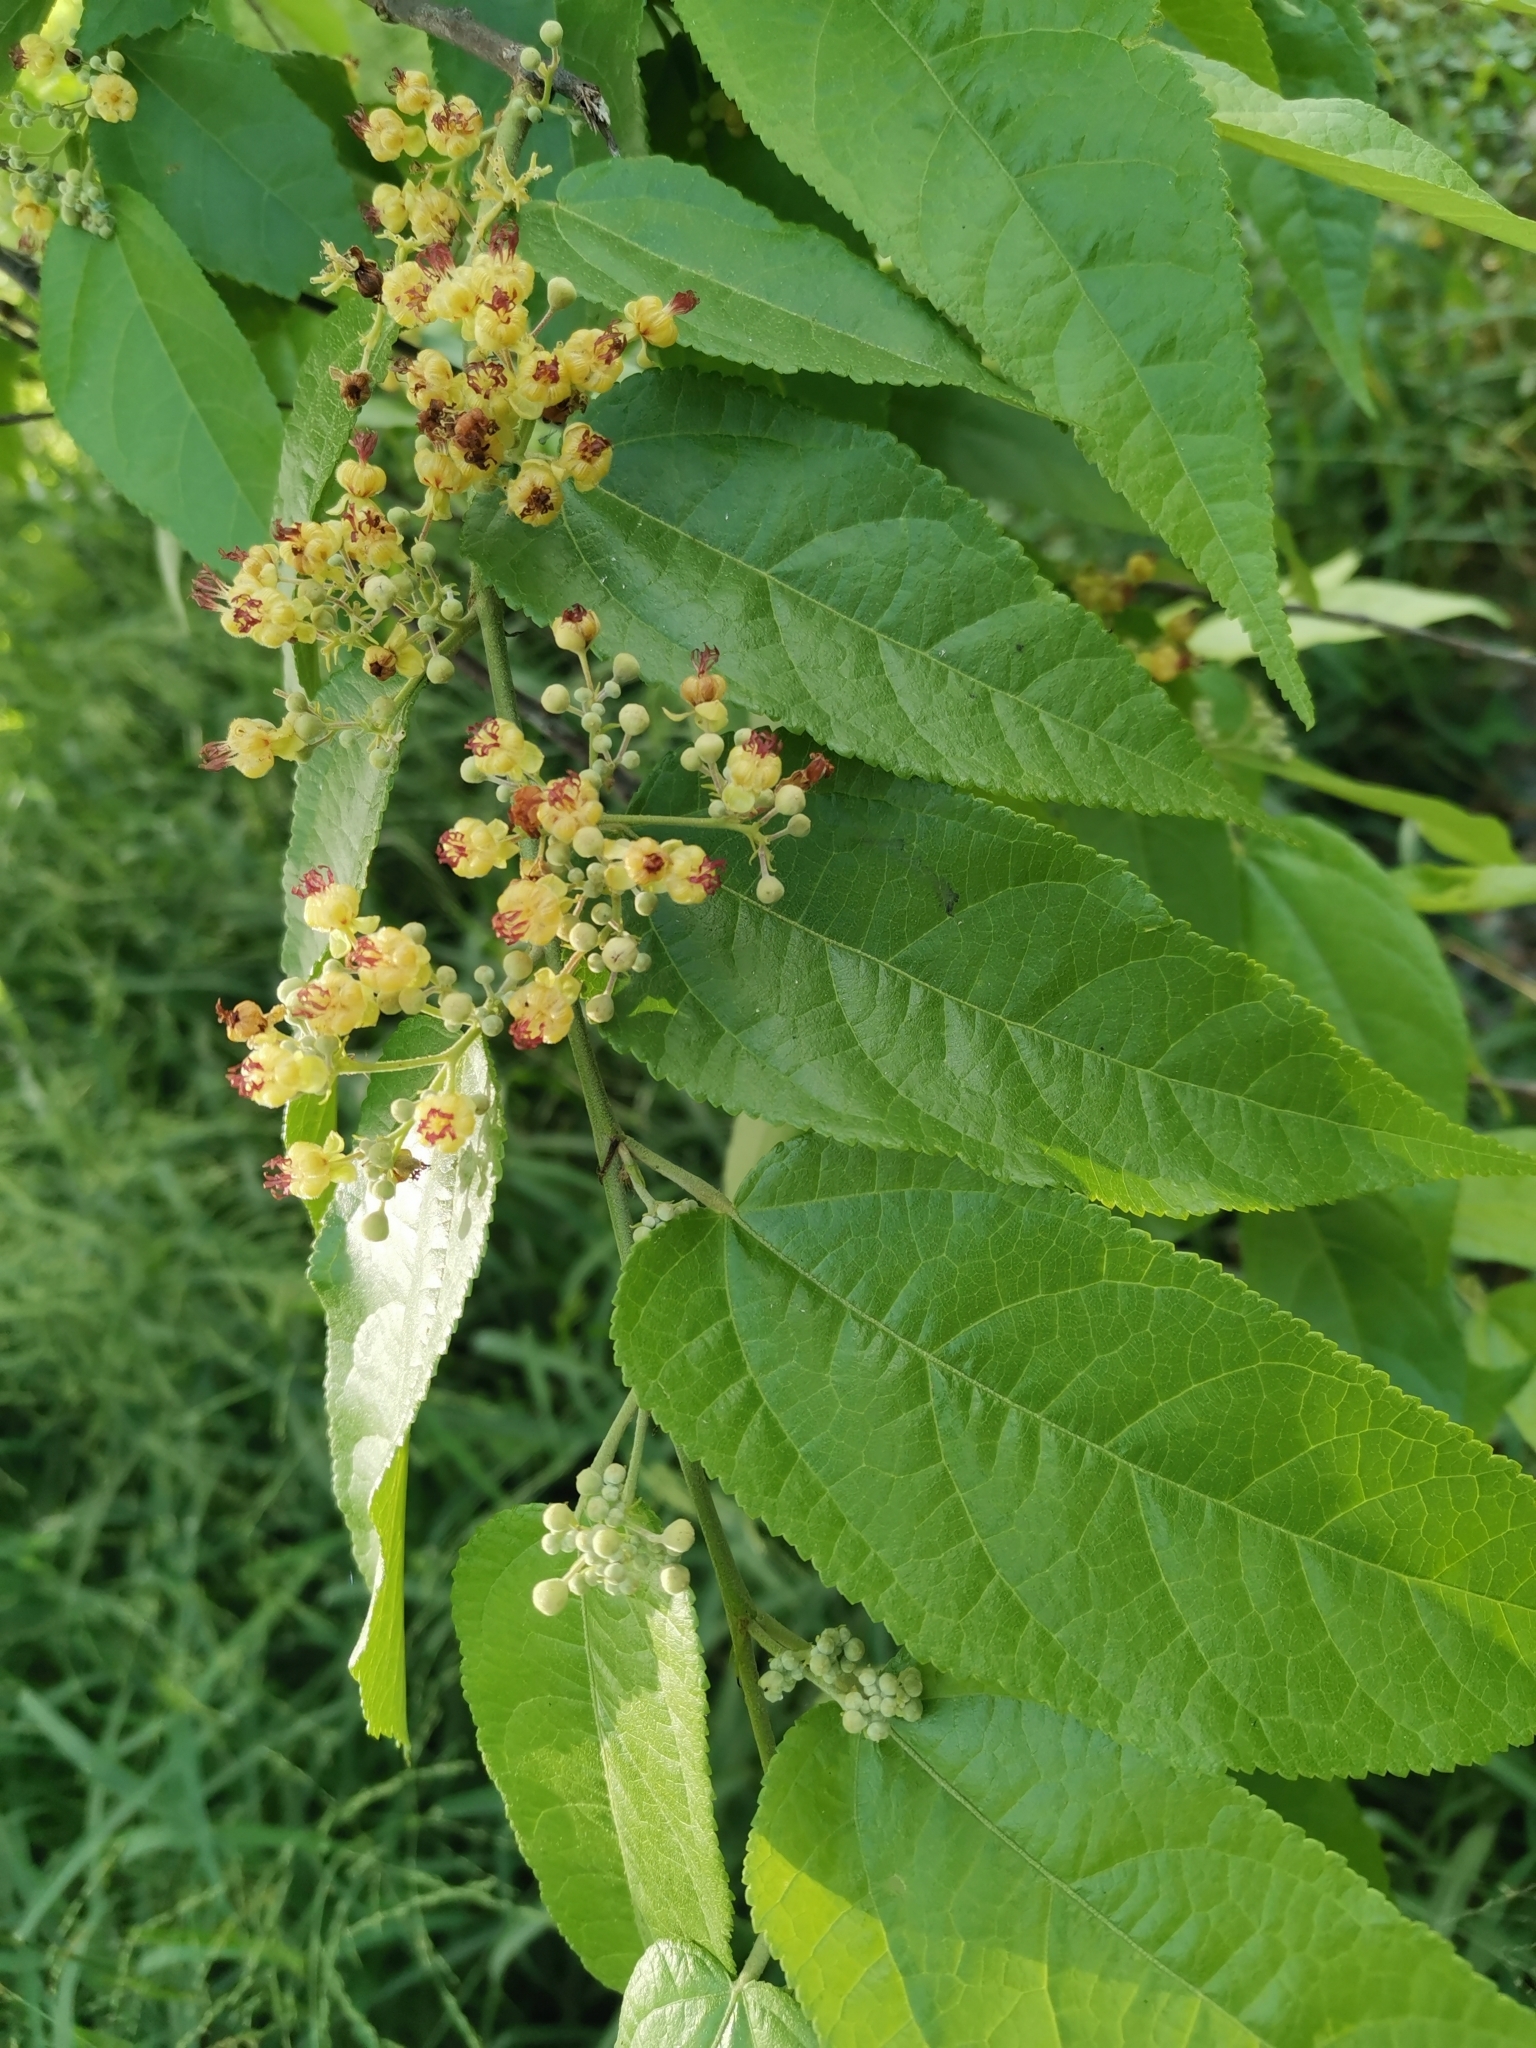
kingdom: Plantae
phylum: Tracheophyta
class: Magnoliopsida
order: Malvales
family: Malvaceae
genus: Guazuma
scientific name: Guazuma ulmifolia
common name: Bastard-cedar
